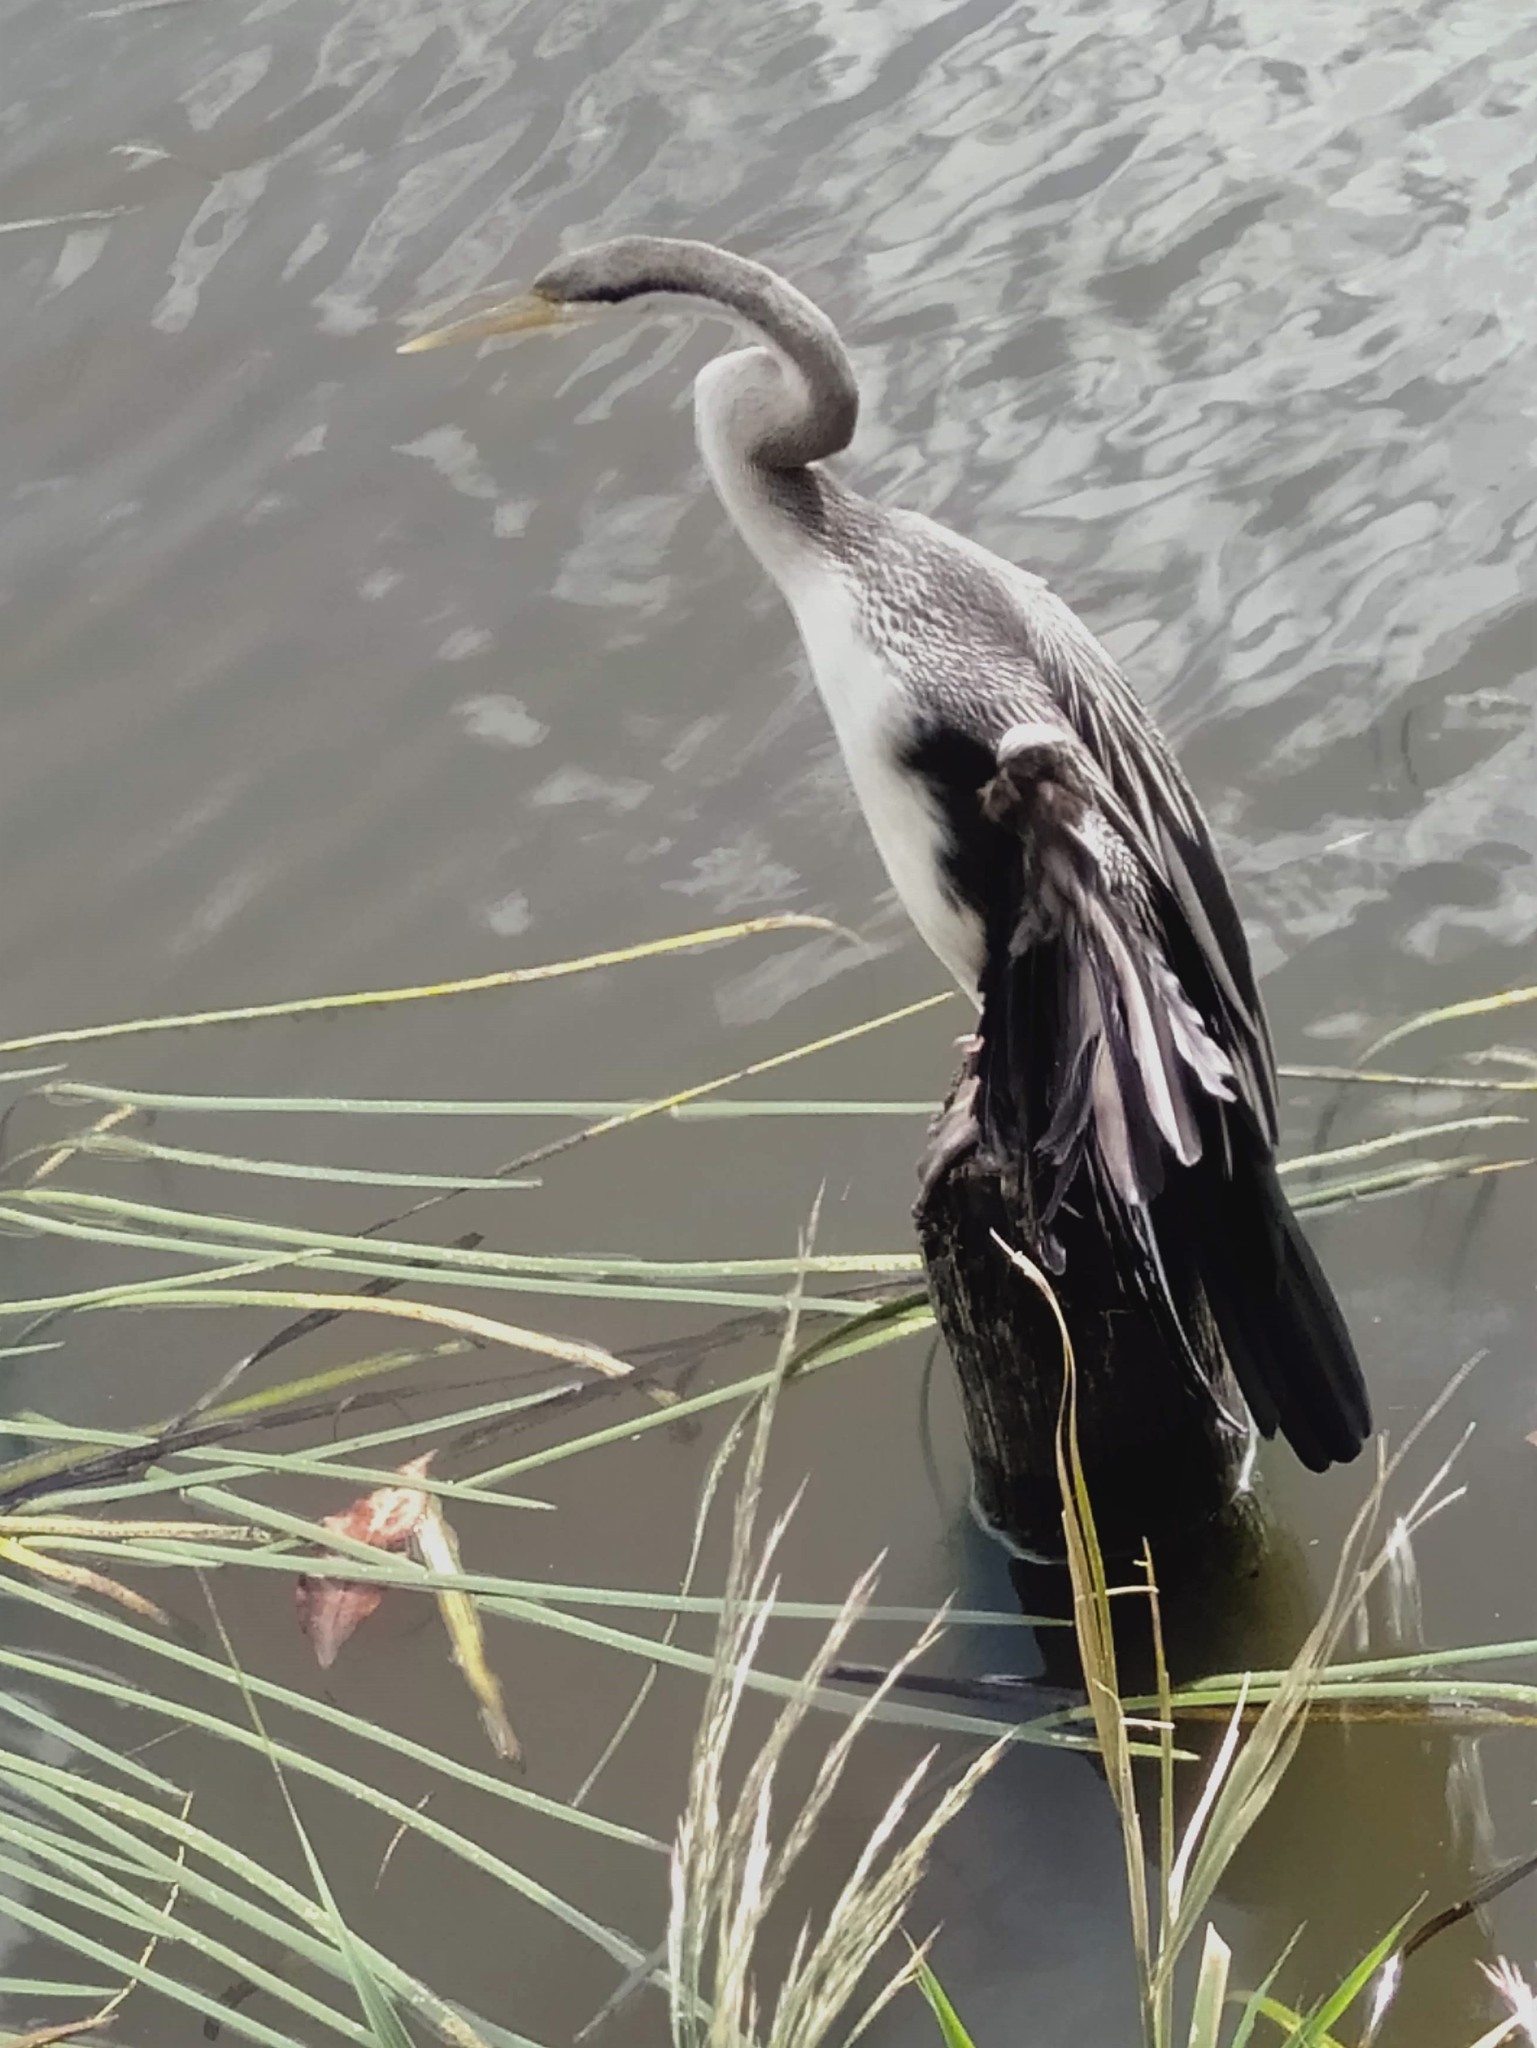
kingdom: Animalia
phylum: Chordata
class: Aves
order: Suliformes
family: Anhingidae
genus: Anhinga
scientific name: Anhinga novaehollandiae
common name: Australasian darter
